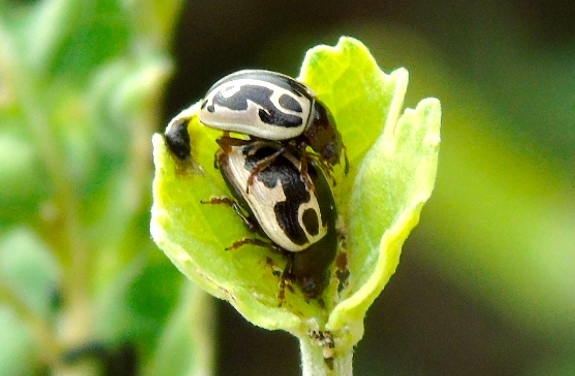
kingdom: Animalia
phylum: Arthropoda
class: Insecta
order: Coleoptera
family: Chrysomelidae
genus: Calligrapha
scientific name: Calligrapha
